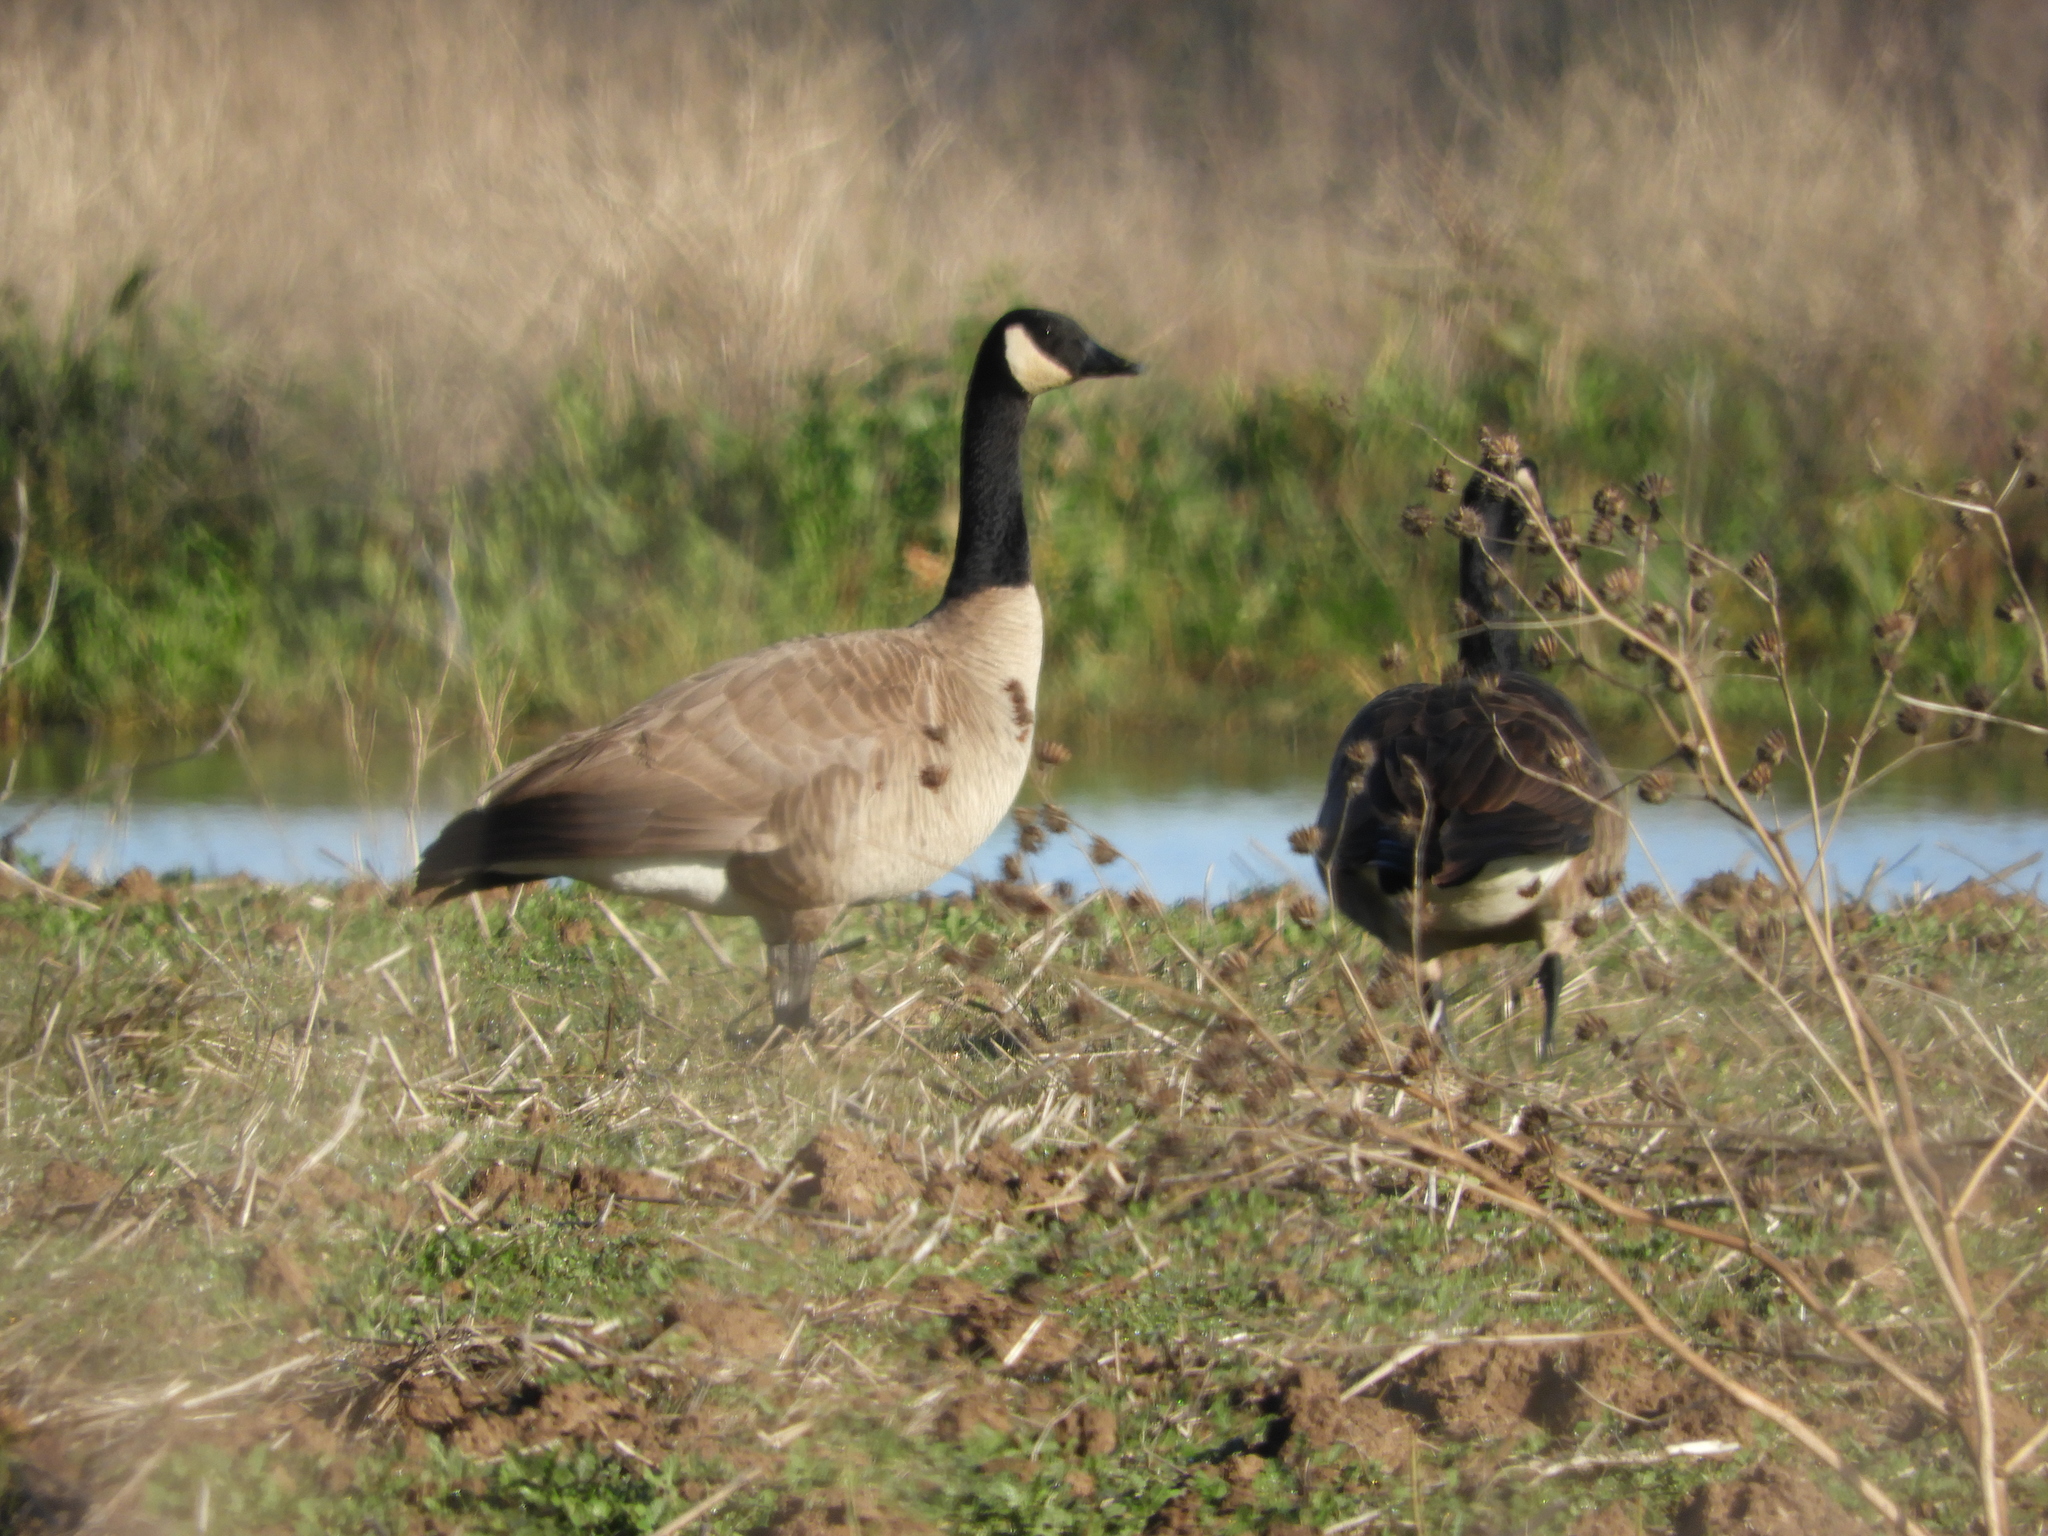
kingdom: Animalia
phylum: Chordata
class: Aves
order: Anseriformes
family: Anatidae
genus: Branta
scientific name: Branta canadensis
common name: Canada goose
